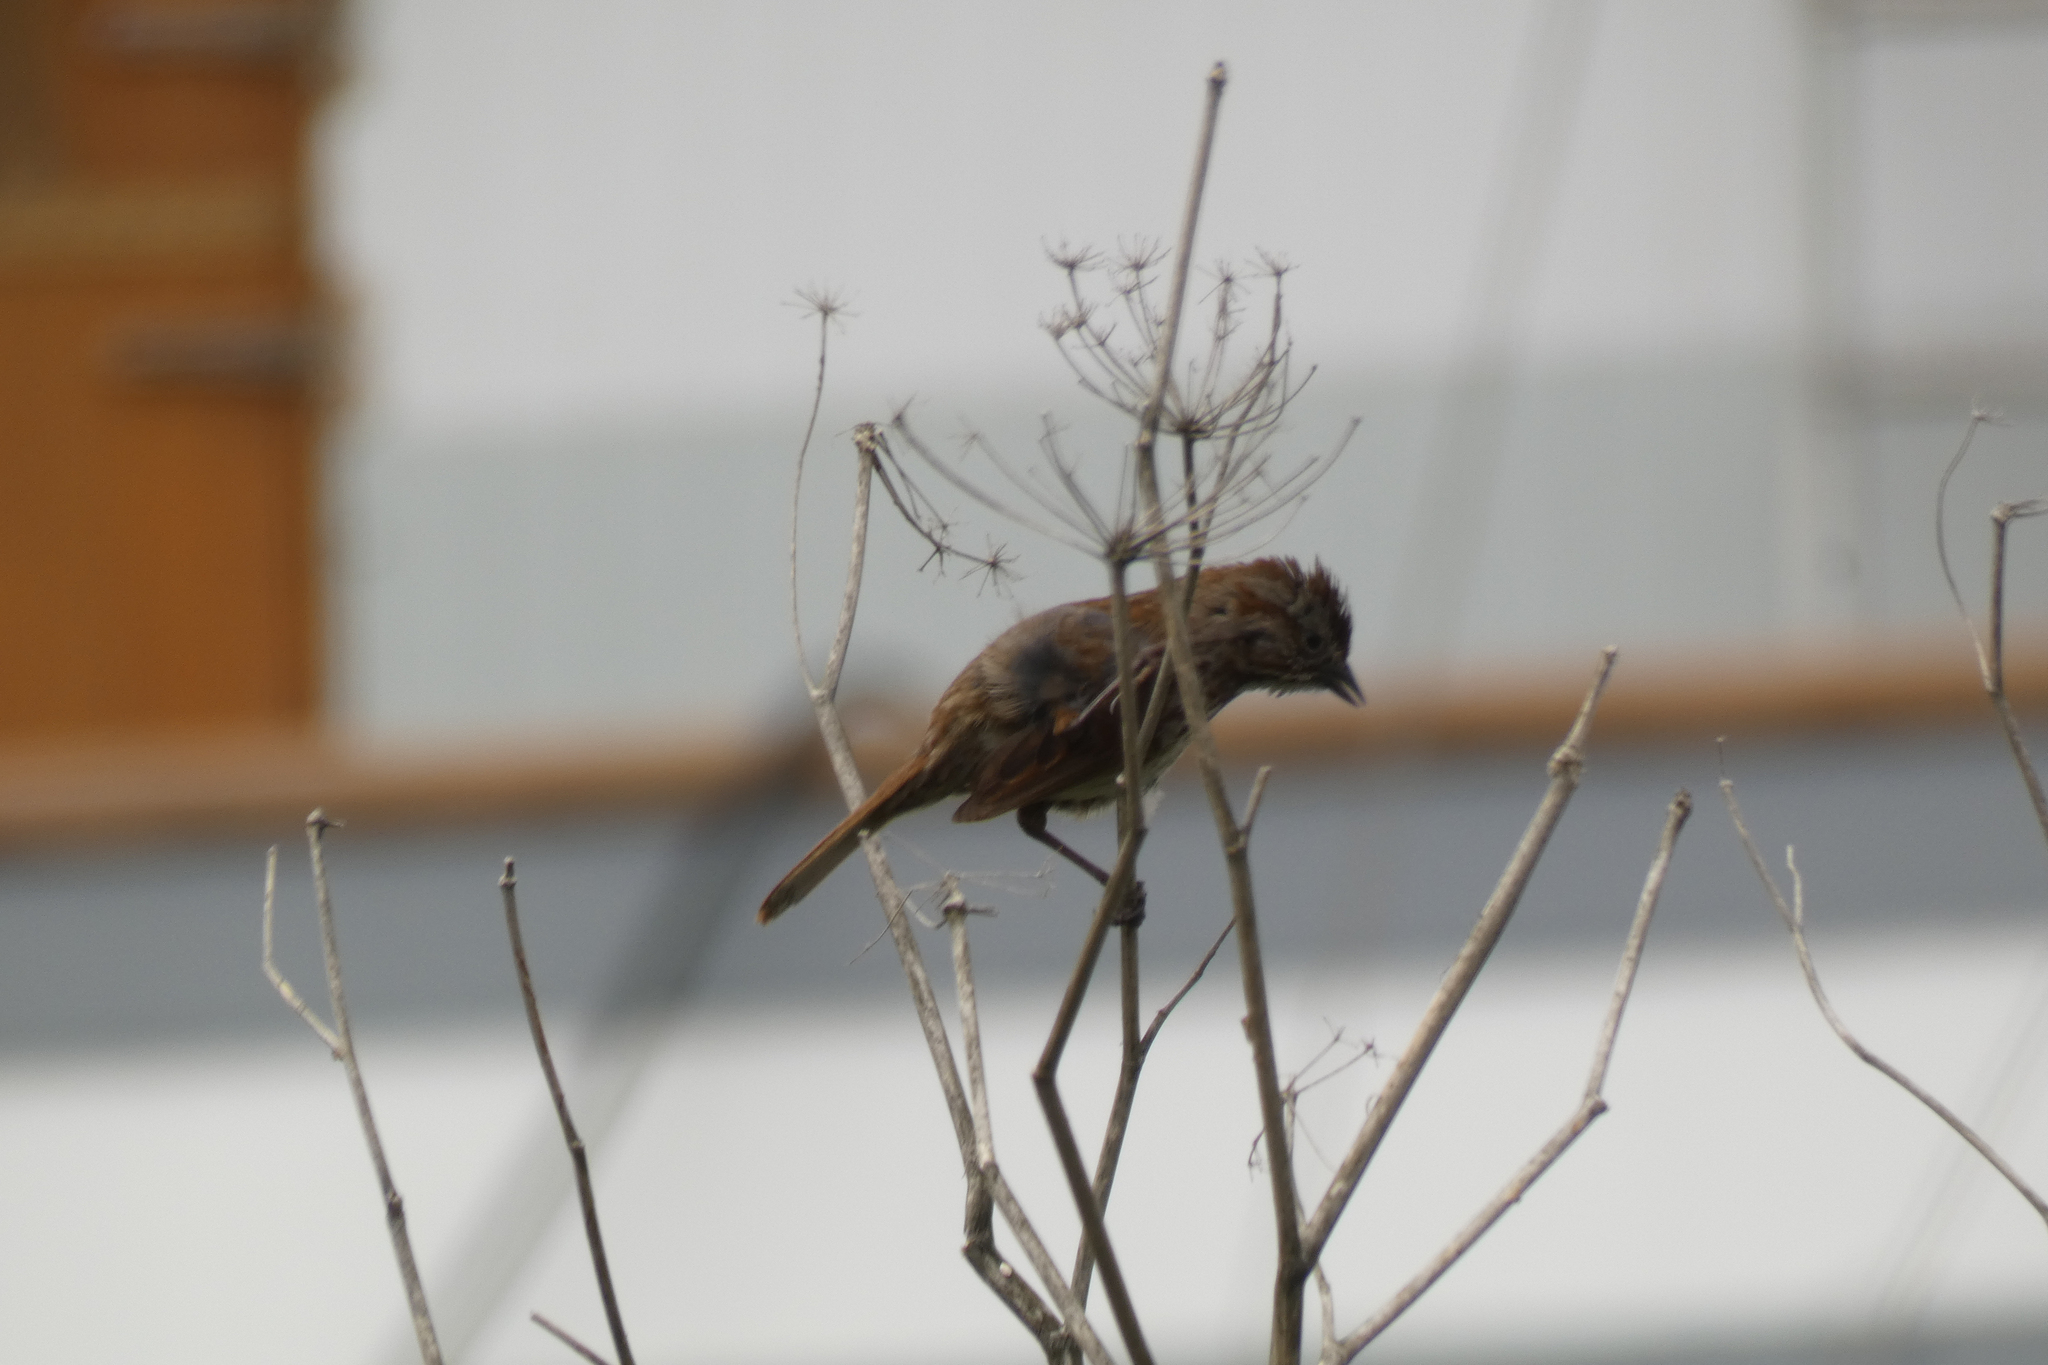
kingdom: Animalia
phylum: Chordata
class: Aves
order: Passeriformes
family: Passerellidae
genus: Melospiza
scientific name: Melospiza melodia
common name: Song sparrow
